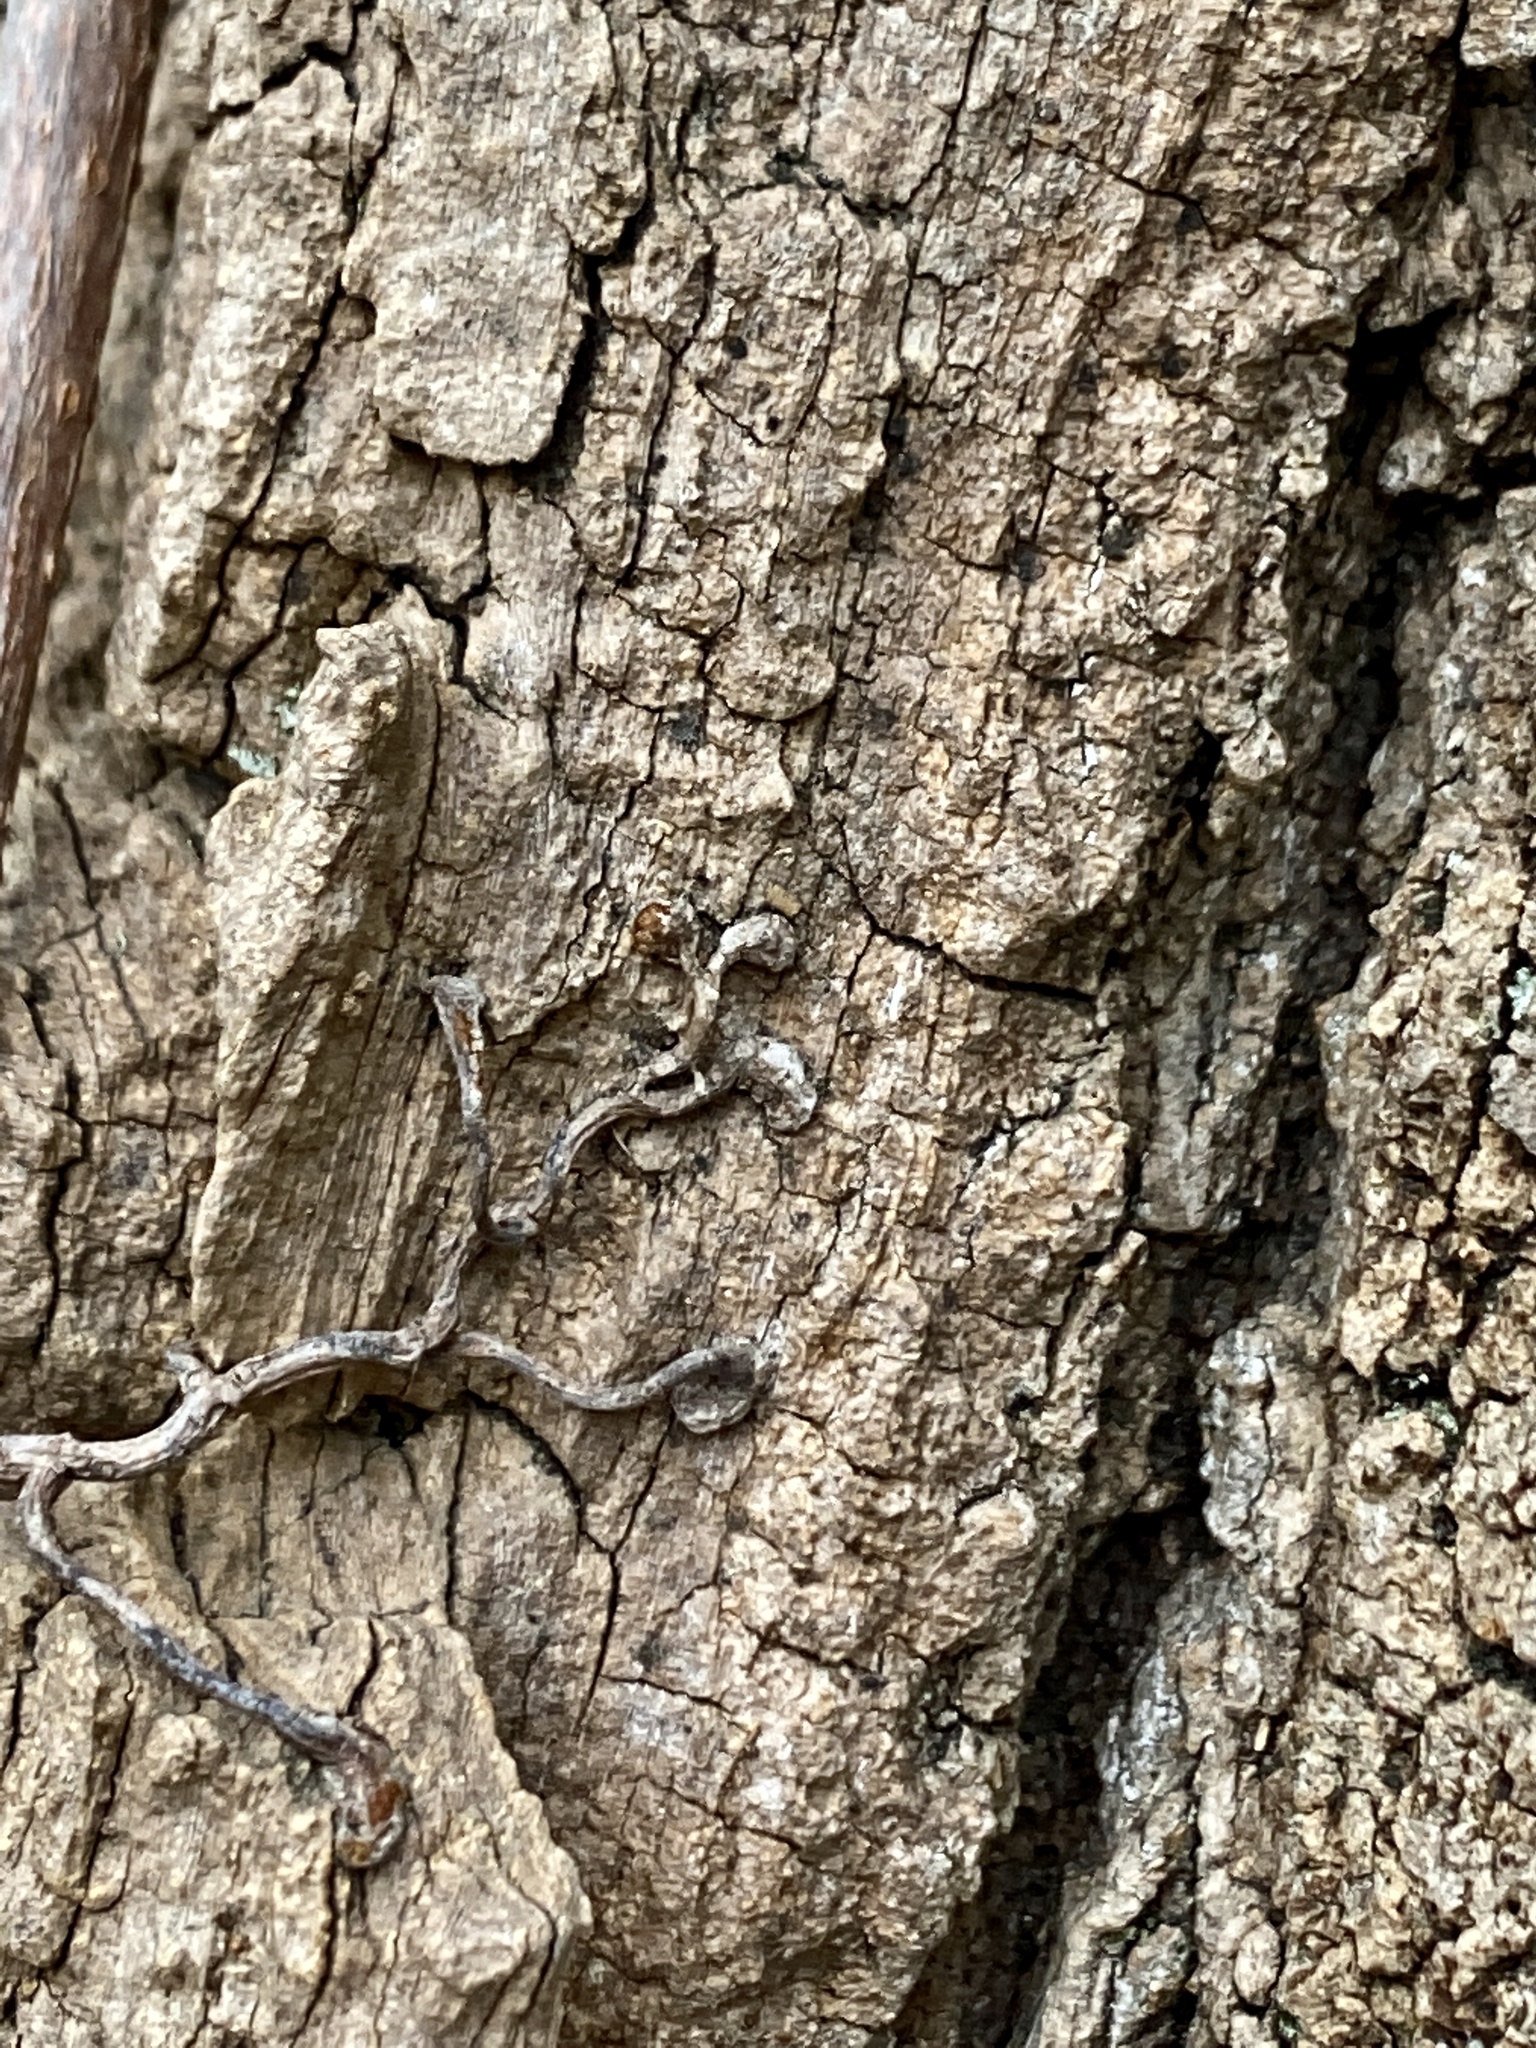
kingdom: Plantae
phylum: Tracheophyta
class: Magnoliopsida
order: Vitales
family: Vitaceae
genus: Parthenocissus
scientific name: Parthenocissus quinquefolia
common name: Virginia-creeper
